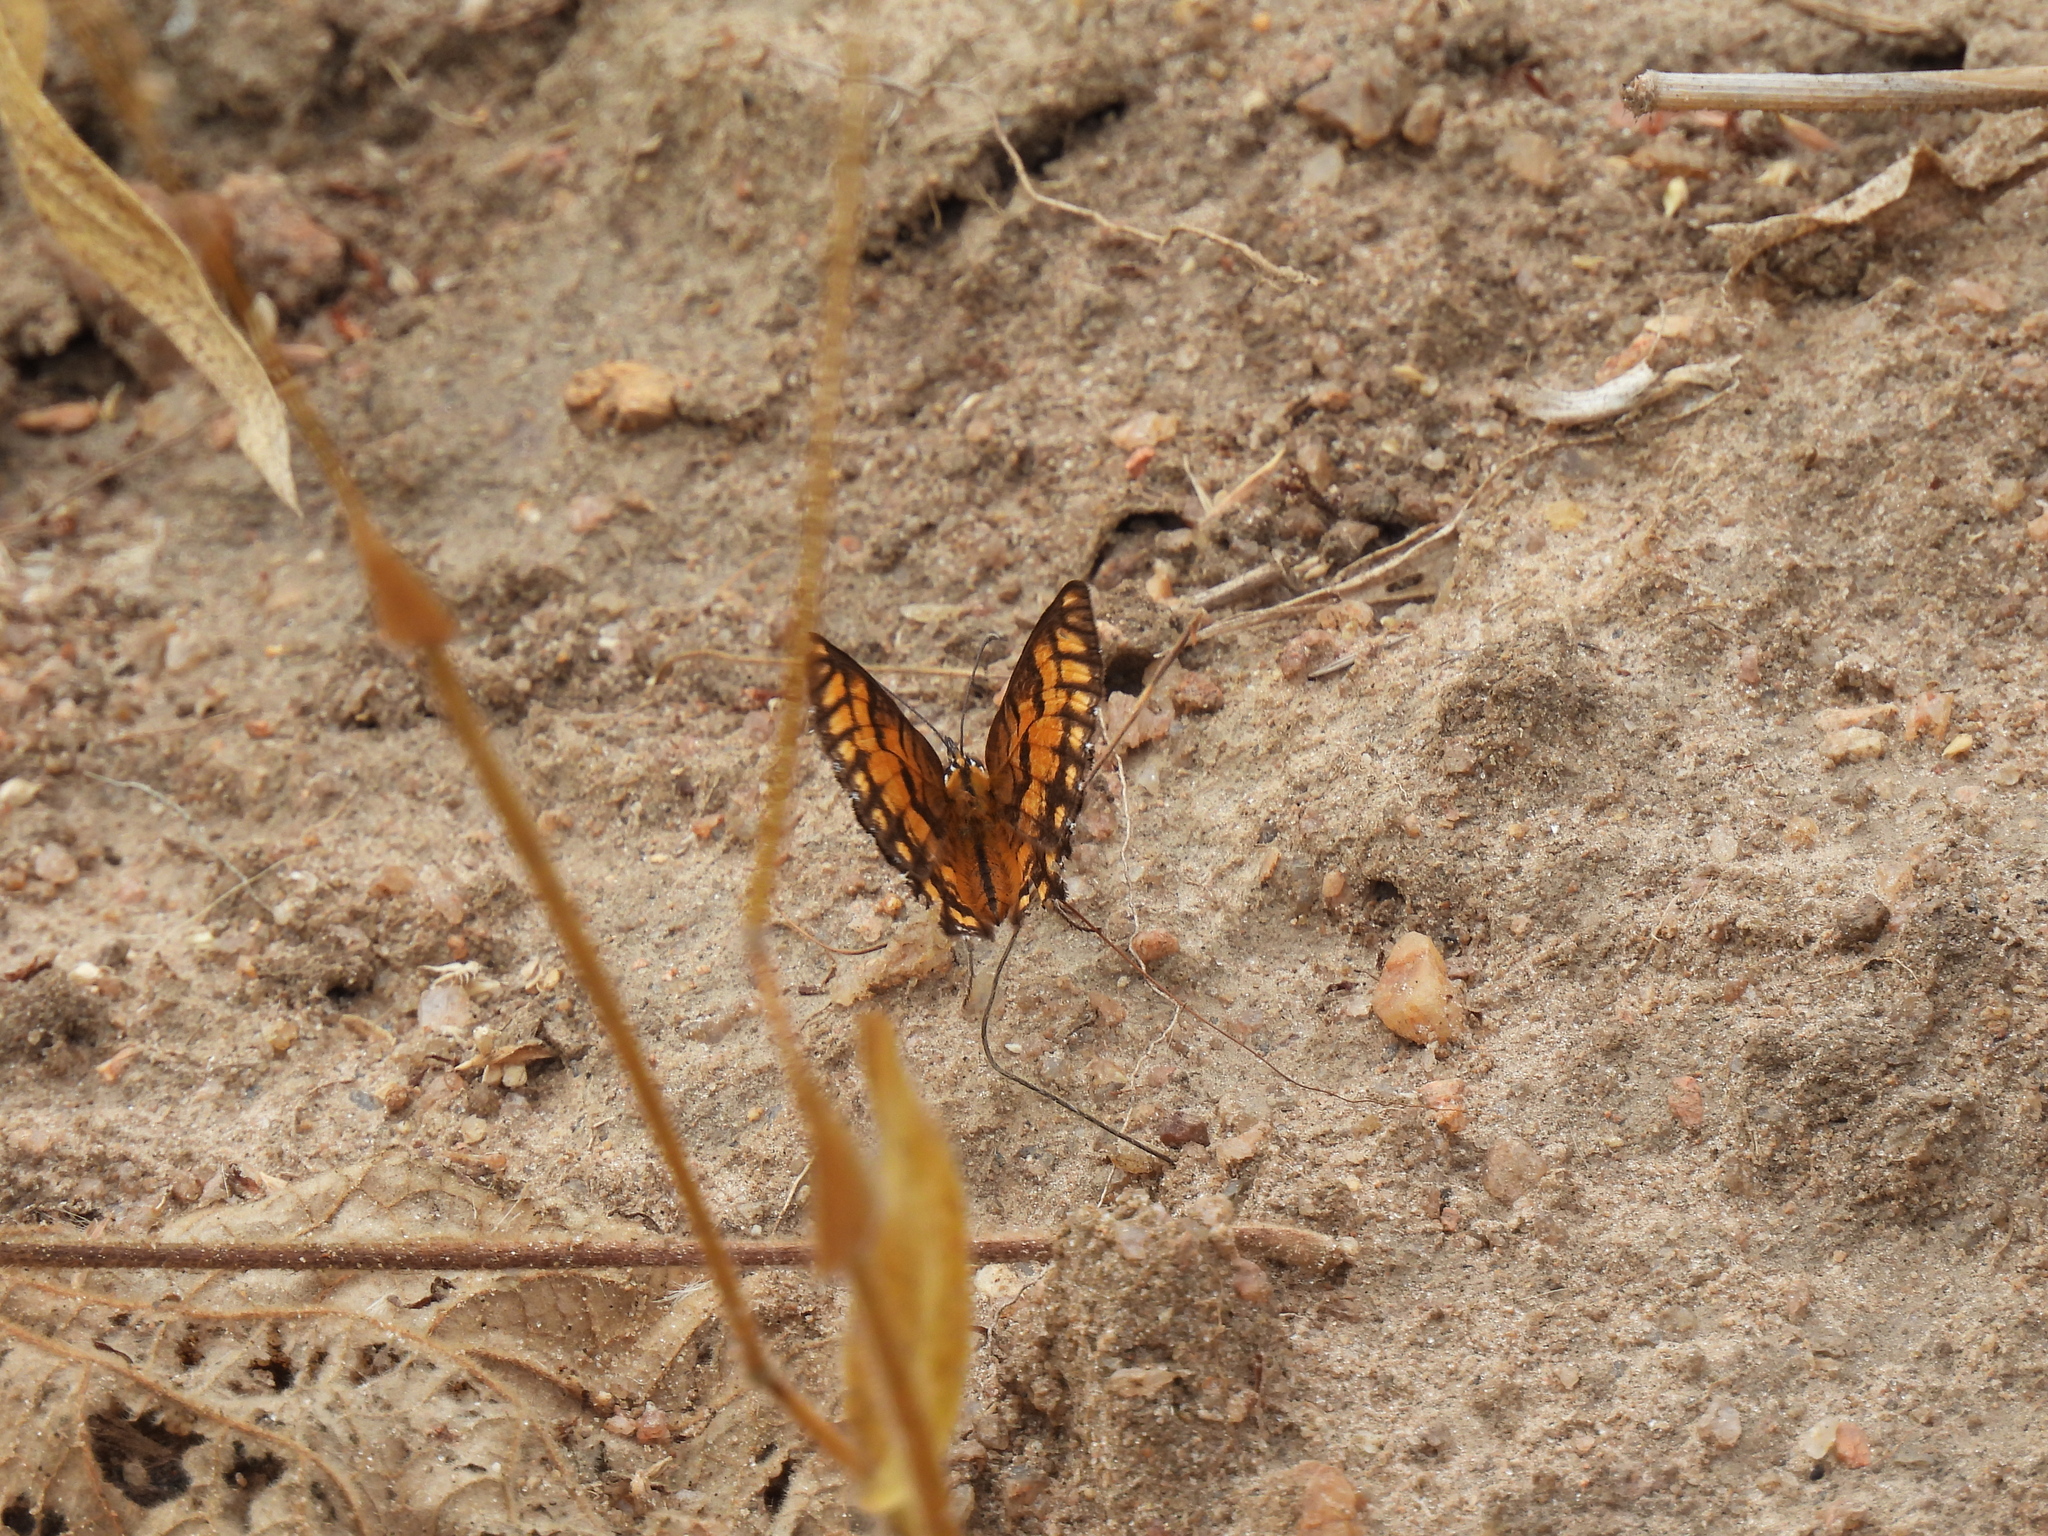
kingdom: Animalia
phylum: Arthropoda
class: Insecta
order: Lepidoptera
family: Nymphalidae
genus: Byblia
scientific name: Byblia ilithyia
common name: Spotted joker
